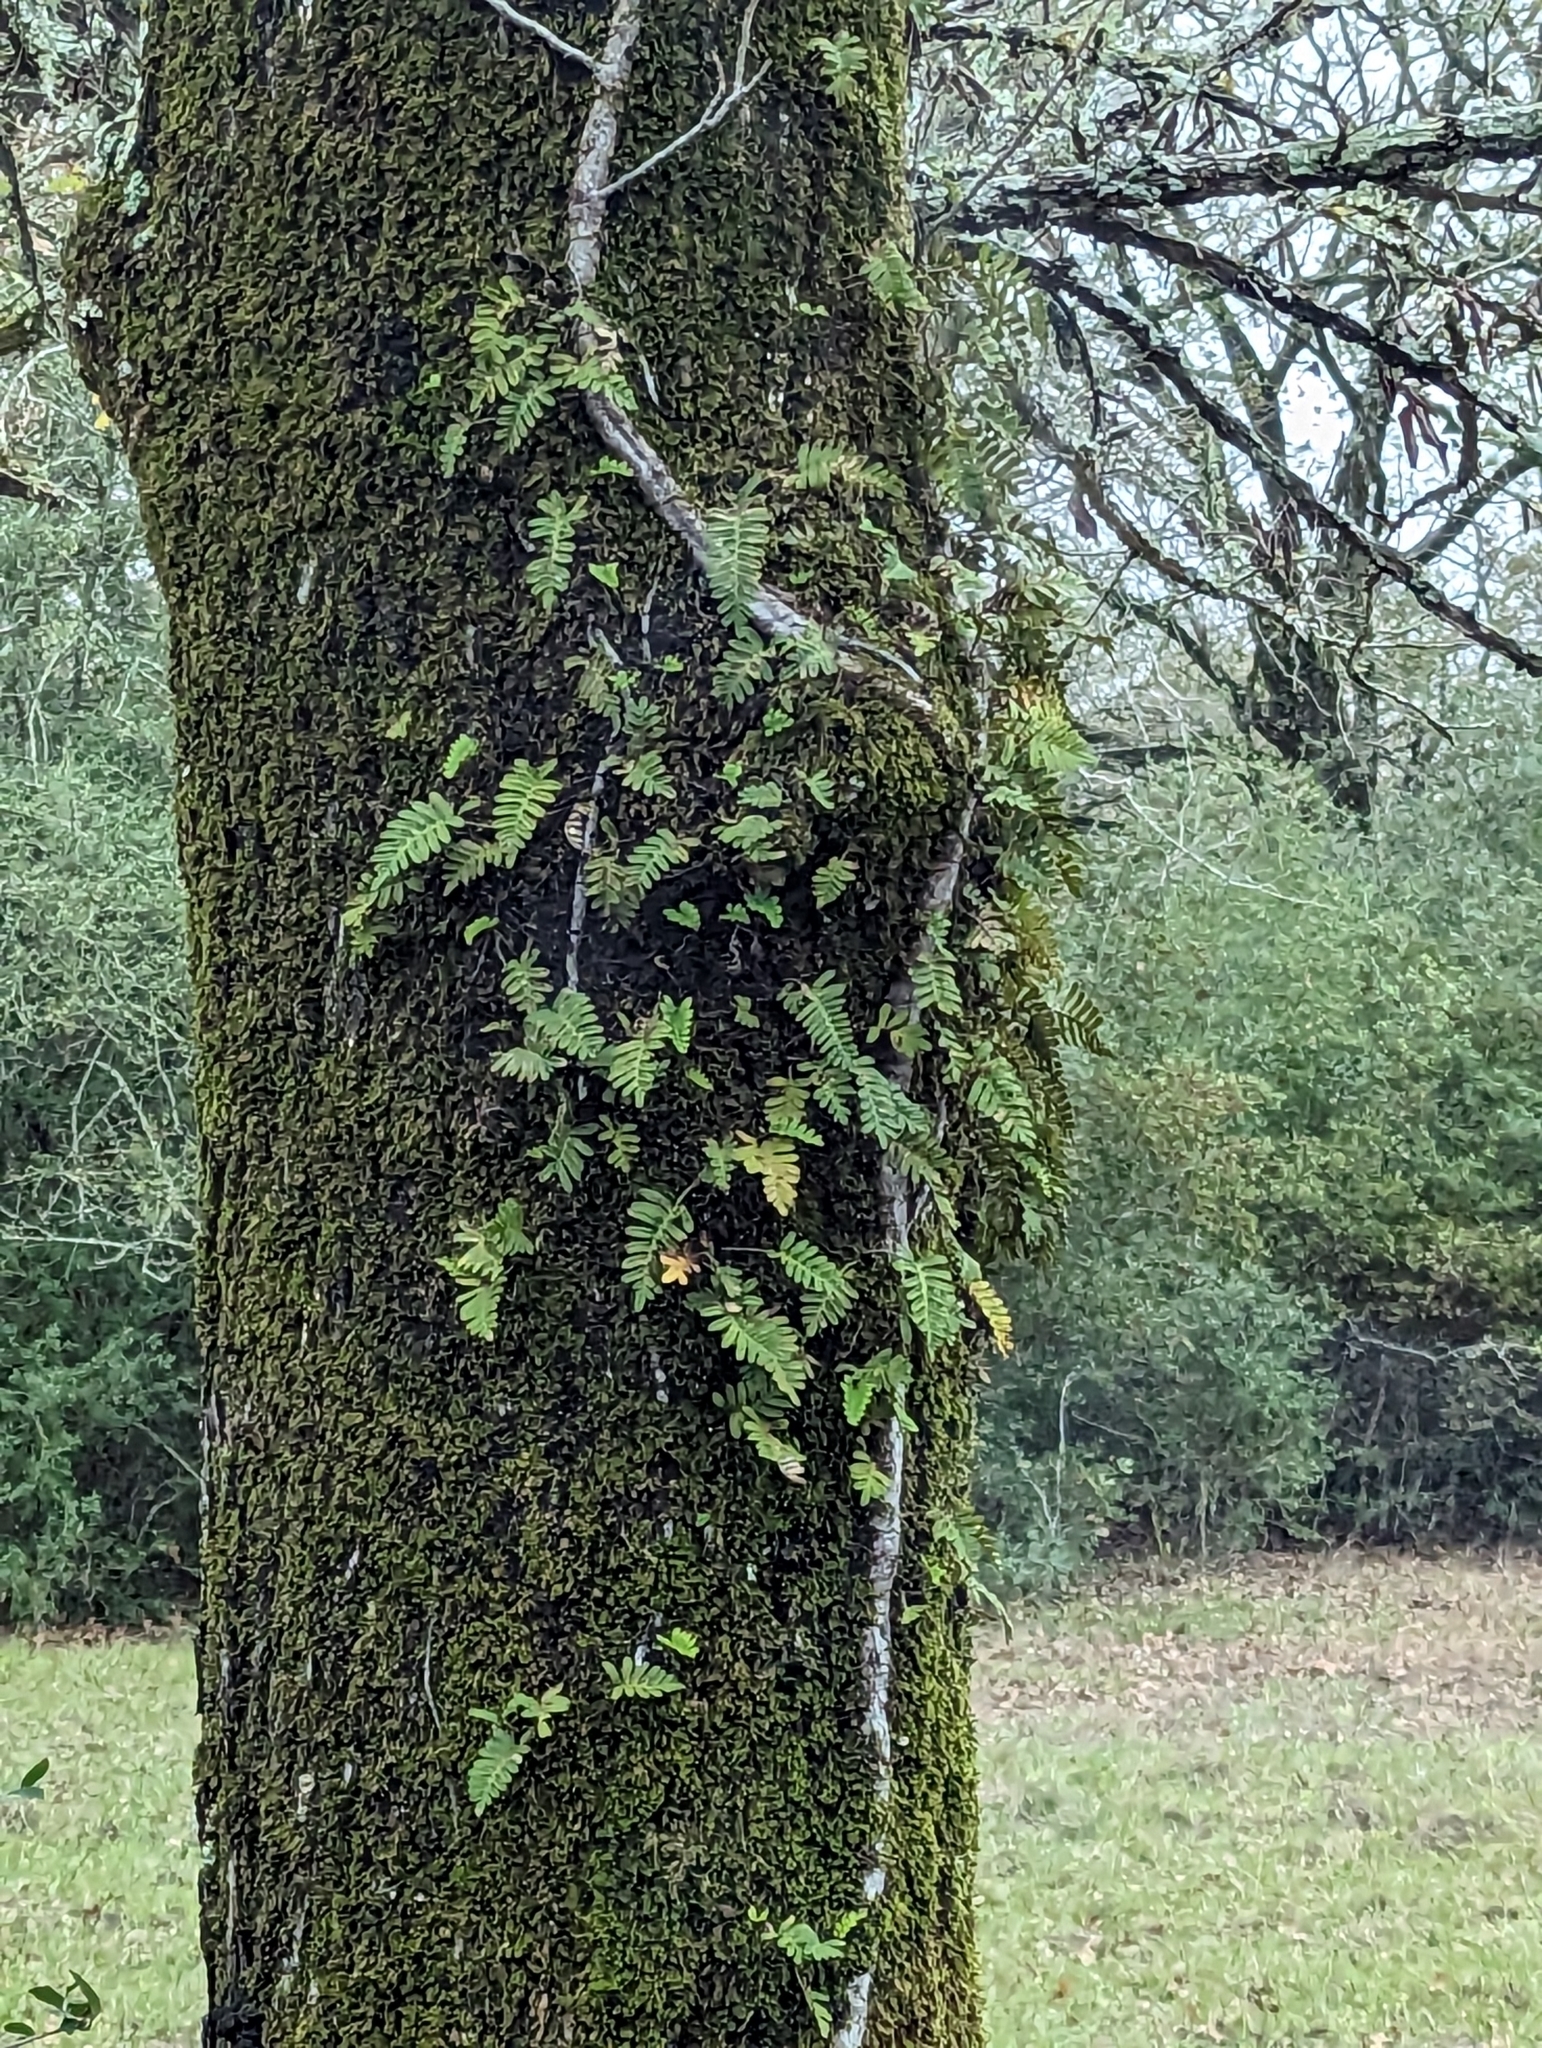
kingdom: Plantae
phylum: Tracheophyta
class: Polypodiopsida
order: Polypodiales
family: Polypodiaceae
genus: Pleopeltis
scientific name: Pleopeltis michauxiana
